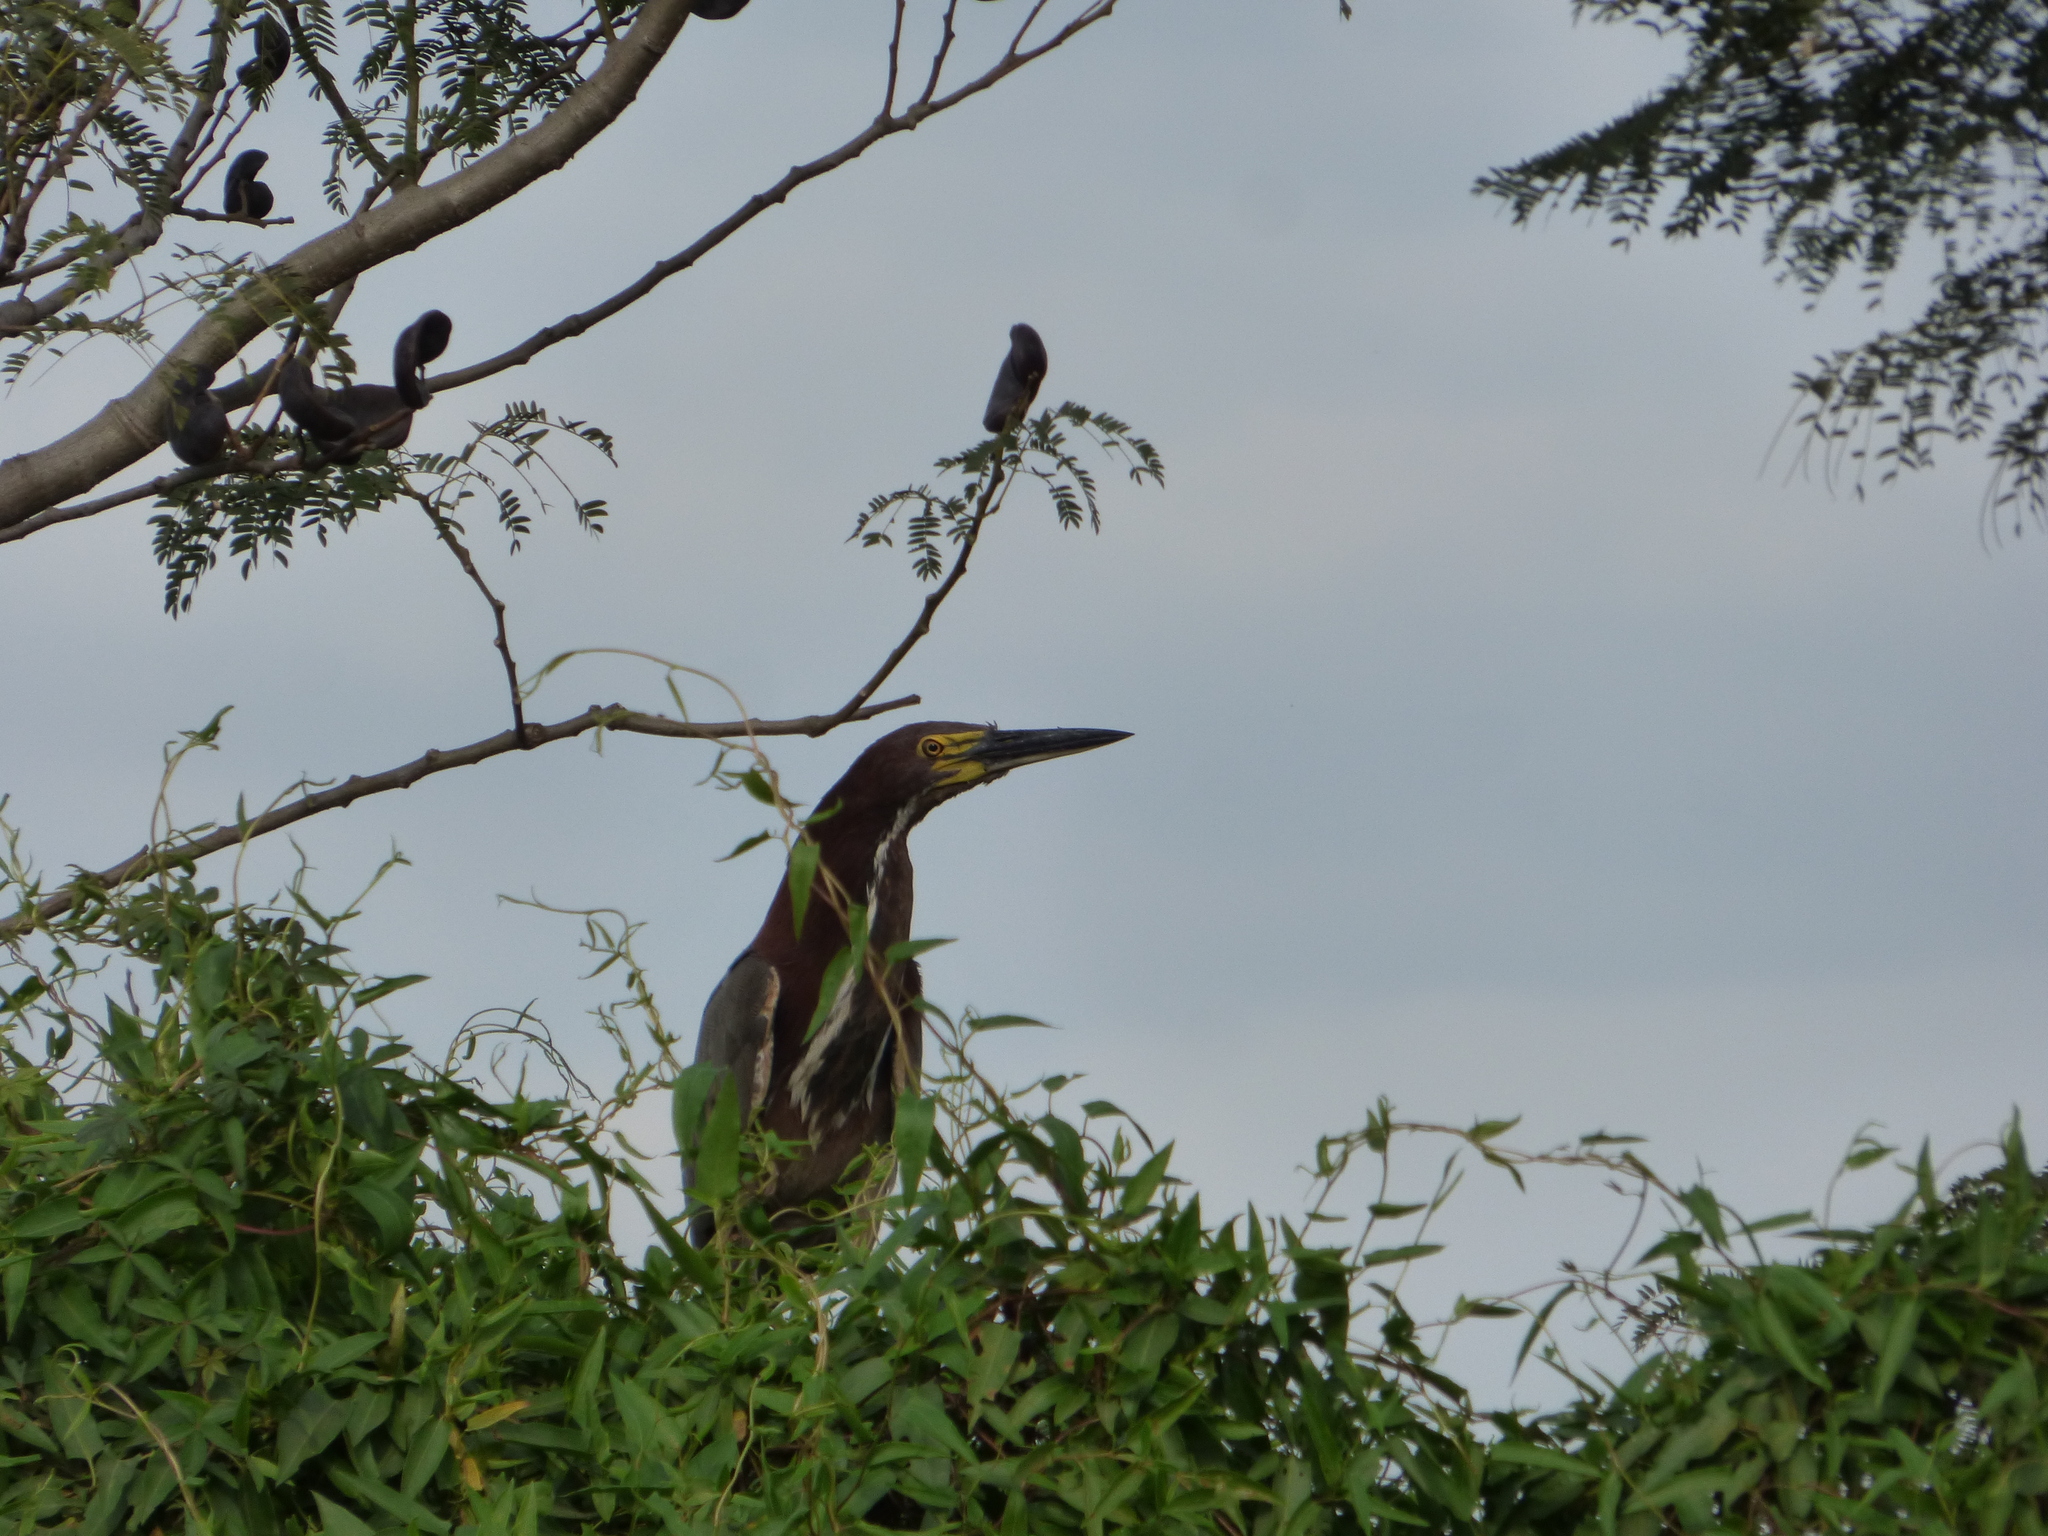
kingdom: Animalia
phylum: Chordata
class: Aves
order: Pelecaniformes
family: Ardeidae
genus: Tigrisoma
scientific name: Tigrisoma lineatum
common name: Rufescent tiger-heron
